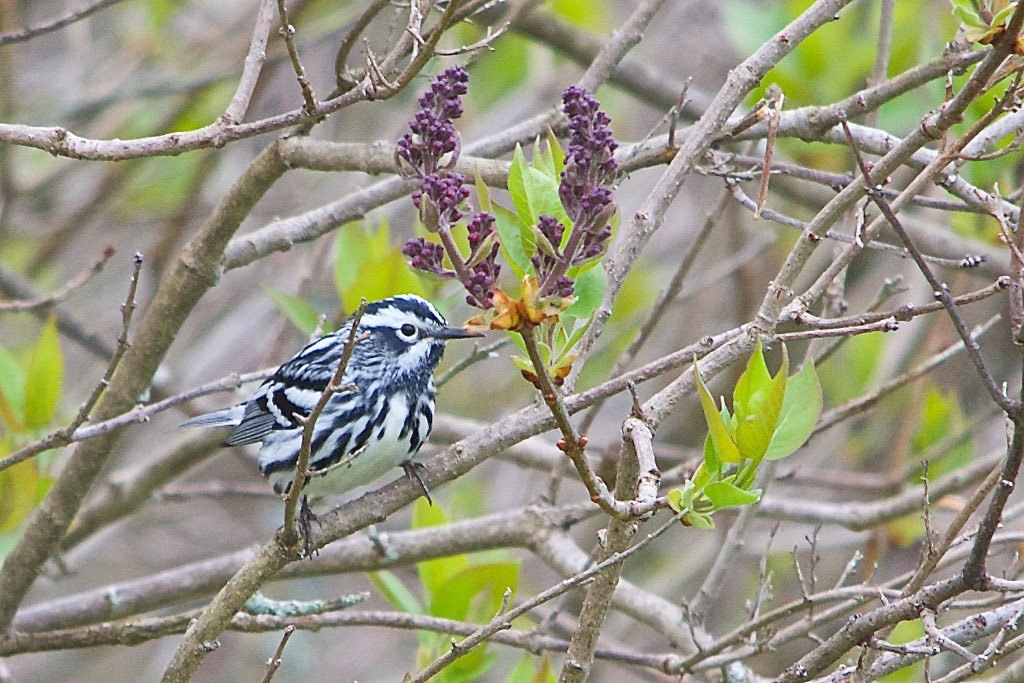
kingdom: Animalia
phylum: Chordata
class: Aves
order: Passeriformes
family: Parulidae
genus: Mniotilta
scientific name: Mniotilta varia
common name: Black-and-white warbler
